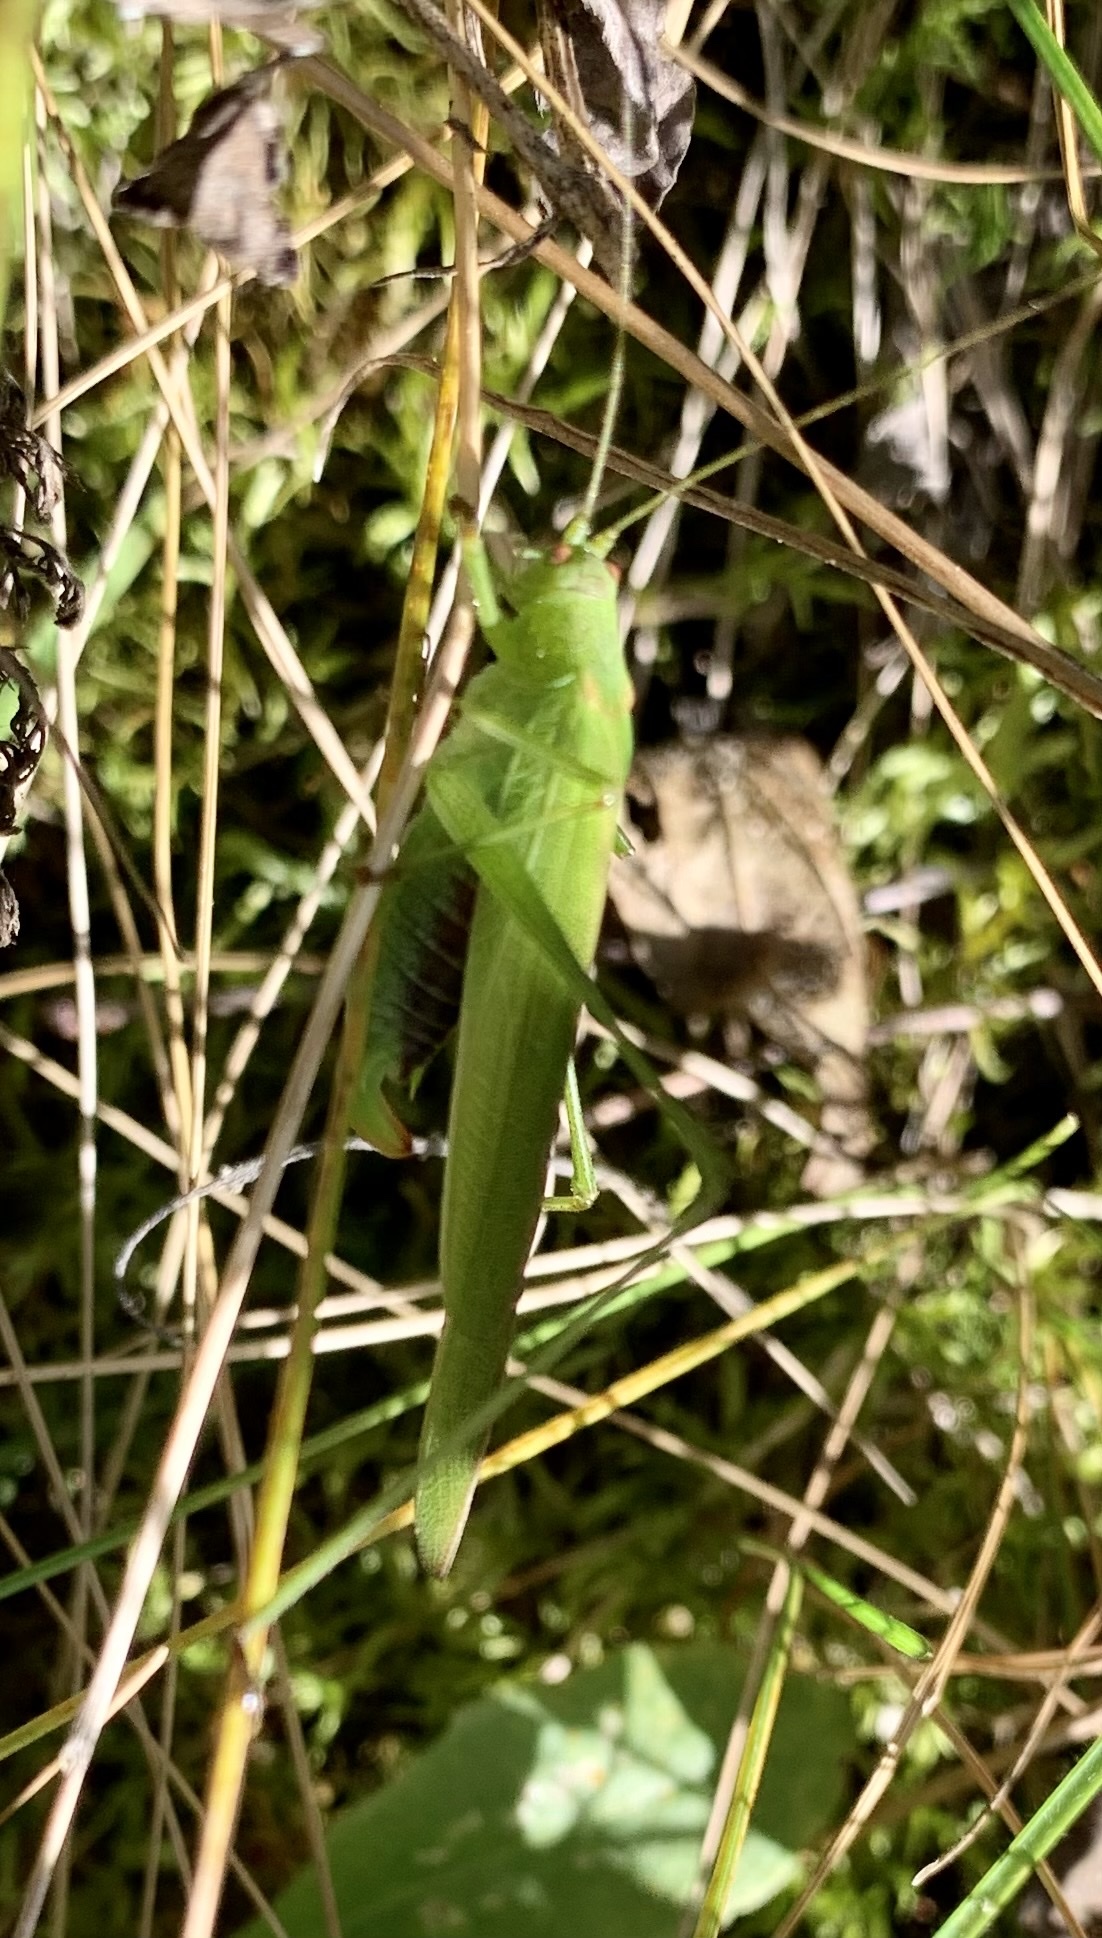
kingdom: Animalia
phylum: Arthropoda
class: Insecta
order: Orthoptera
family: Tettigoniidae
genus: Phaneroptera
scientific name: Phaneroptera falcata
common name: Sickle-bearing bush-cricket
